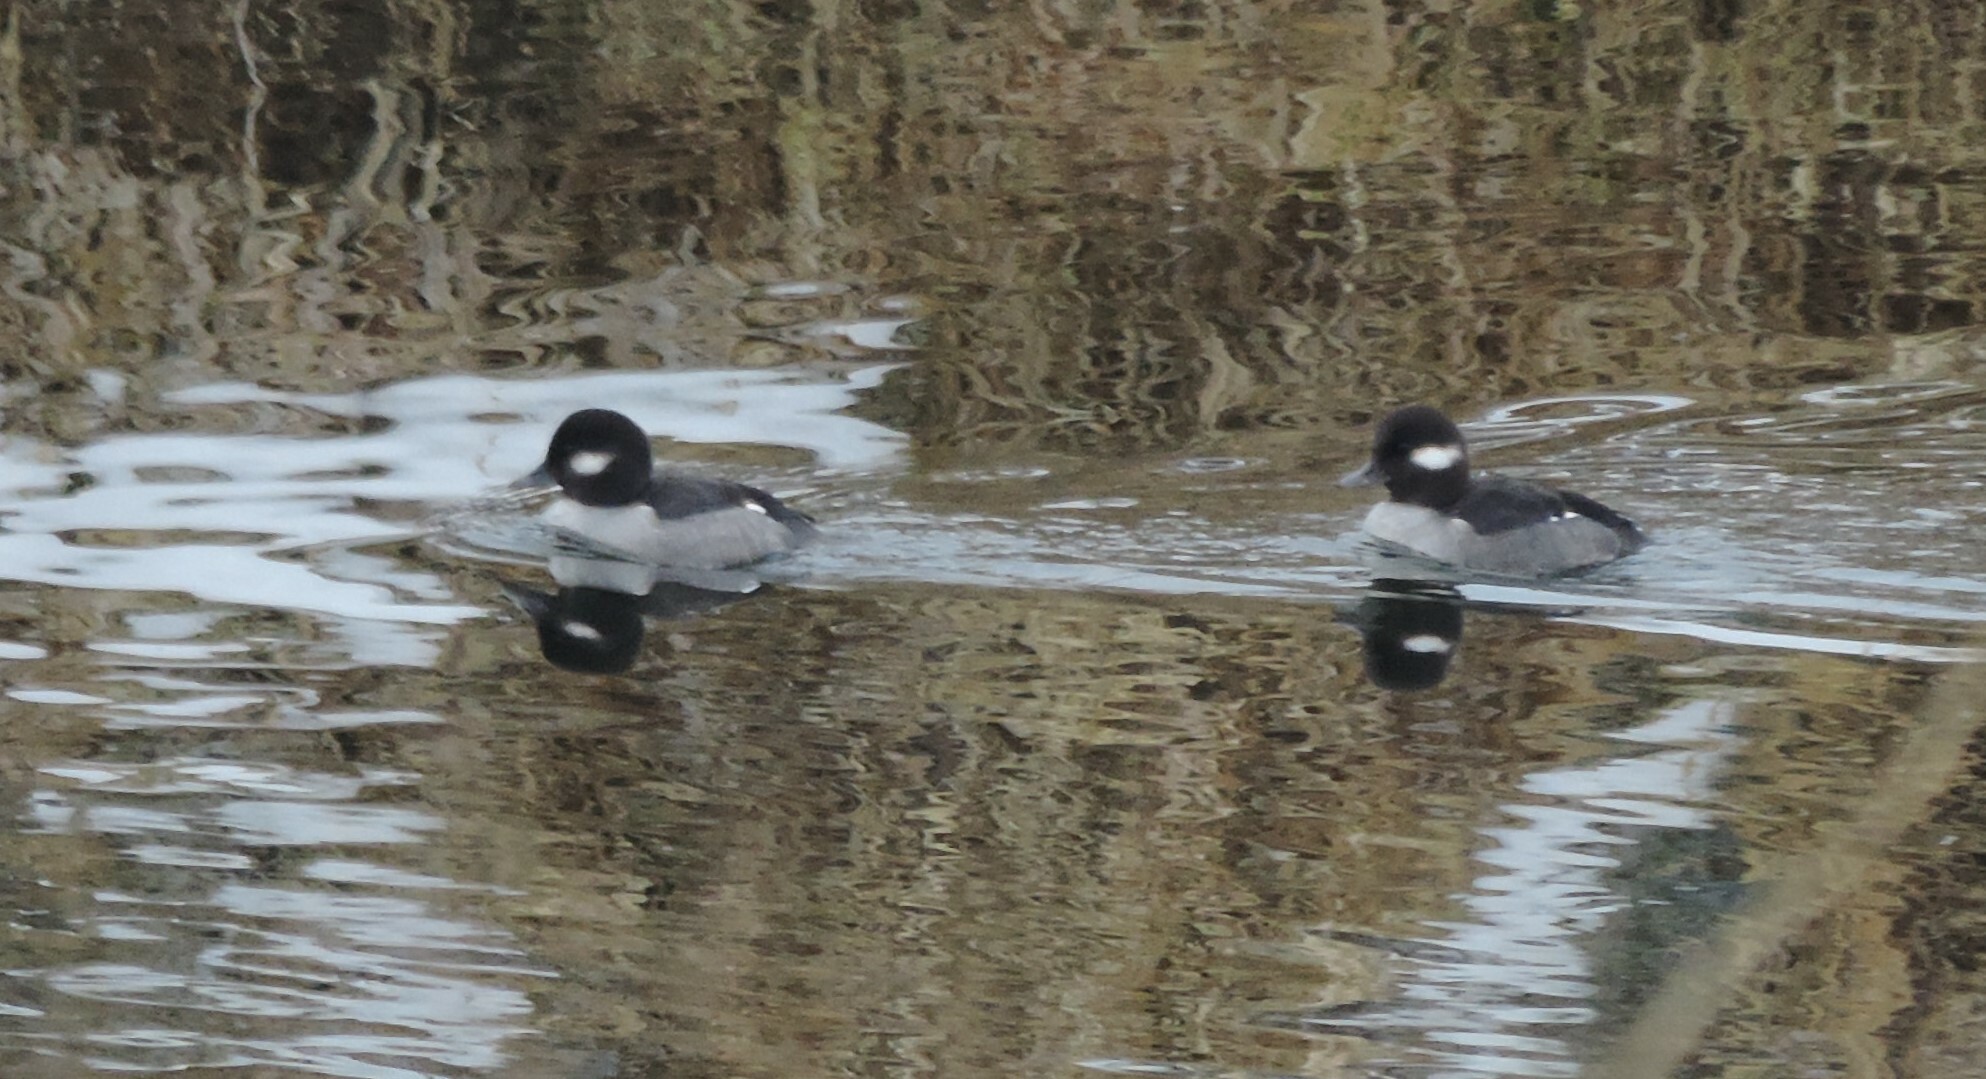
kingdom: Animalia
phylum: Chordata
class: Aves
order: Anseriformes
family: Anatidae
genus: Bucephala
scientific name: Bucephala albeola
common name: Bufflehead
